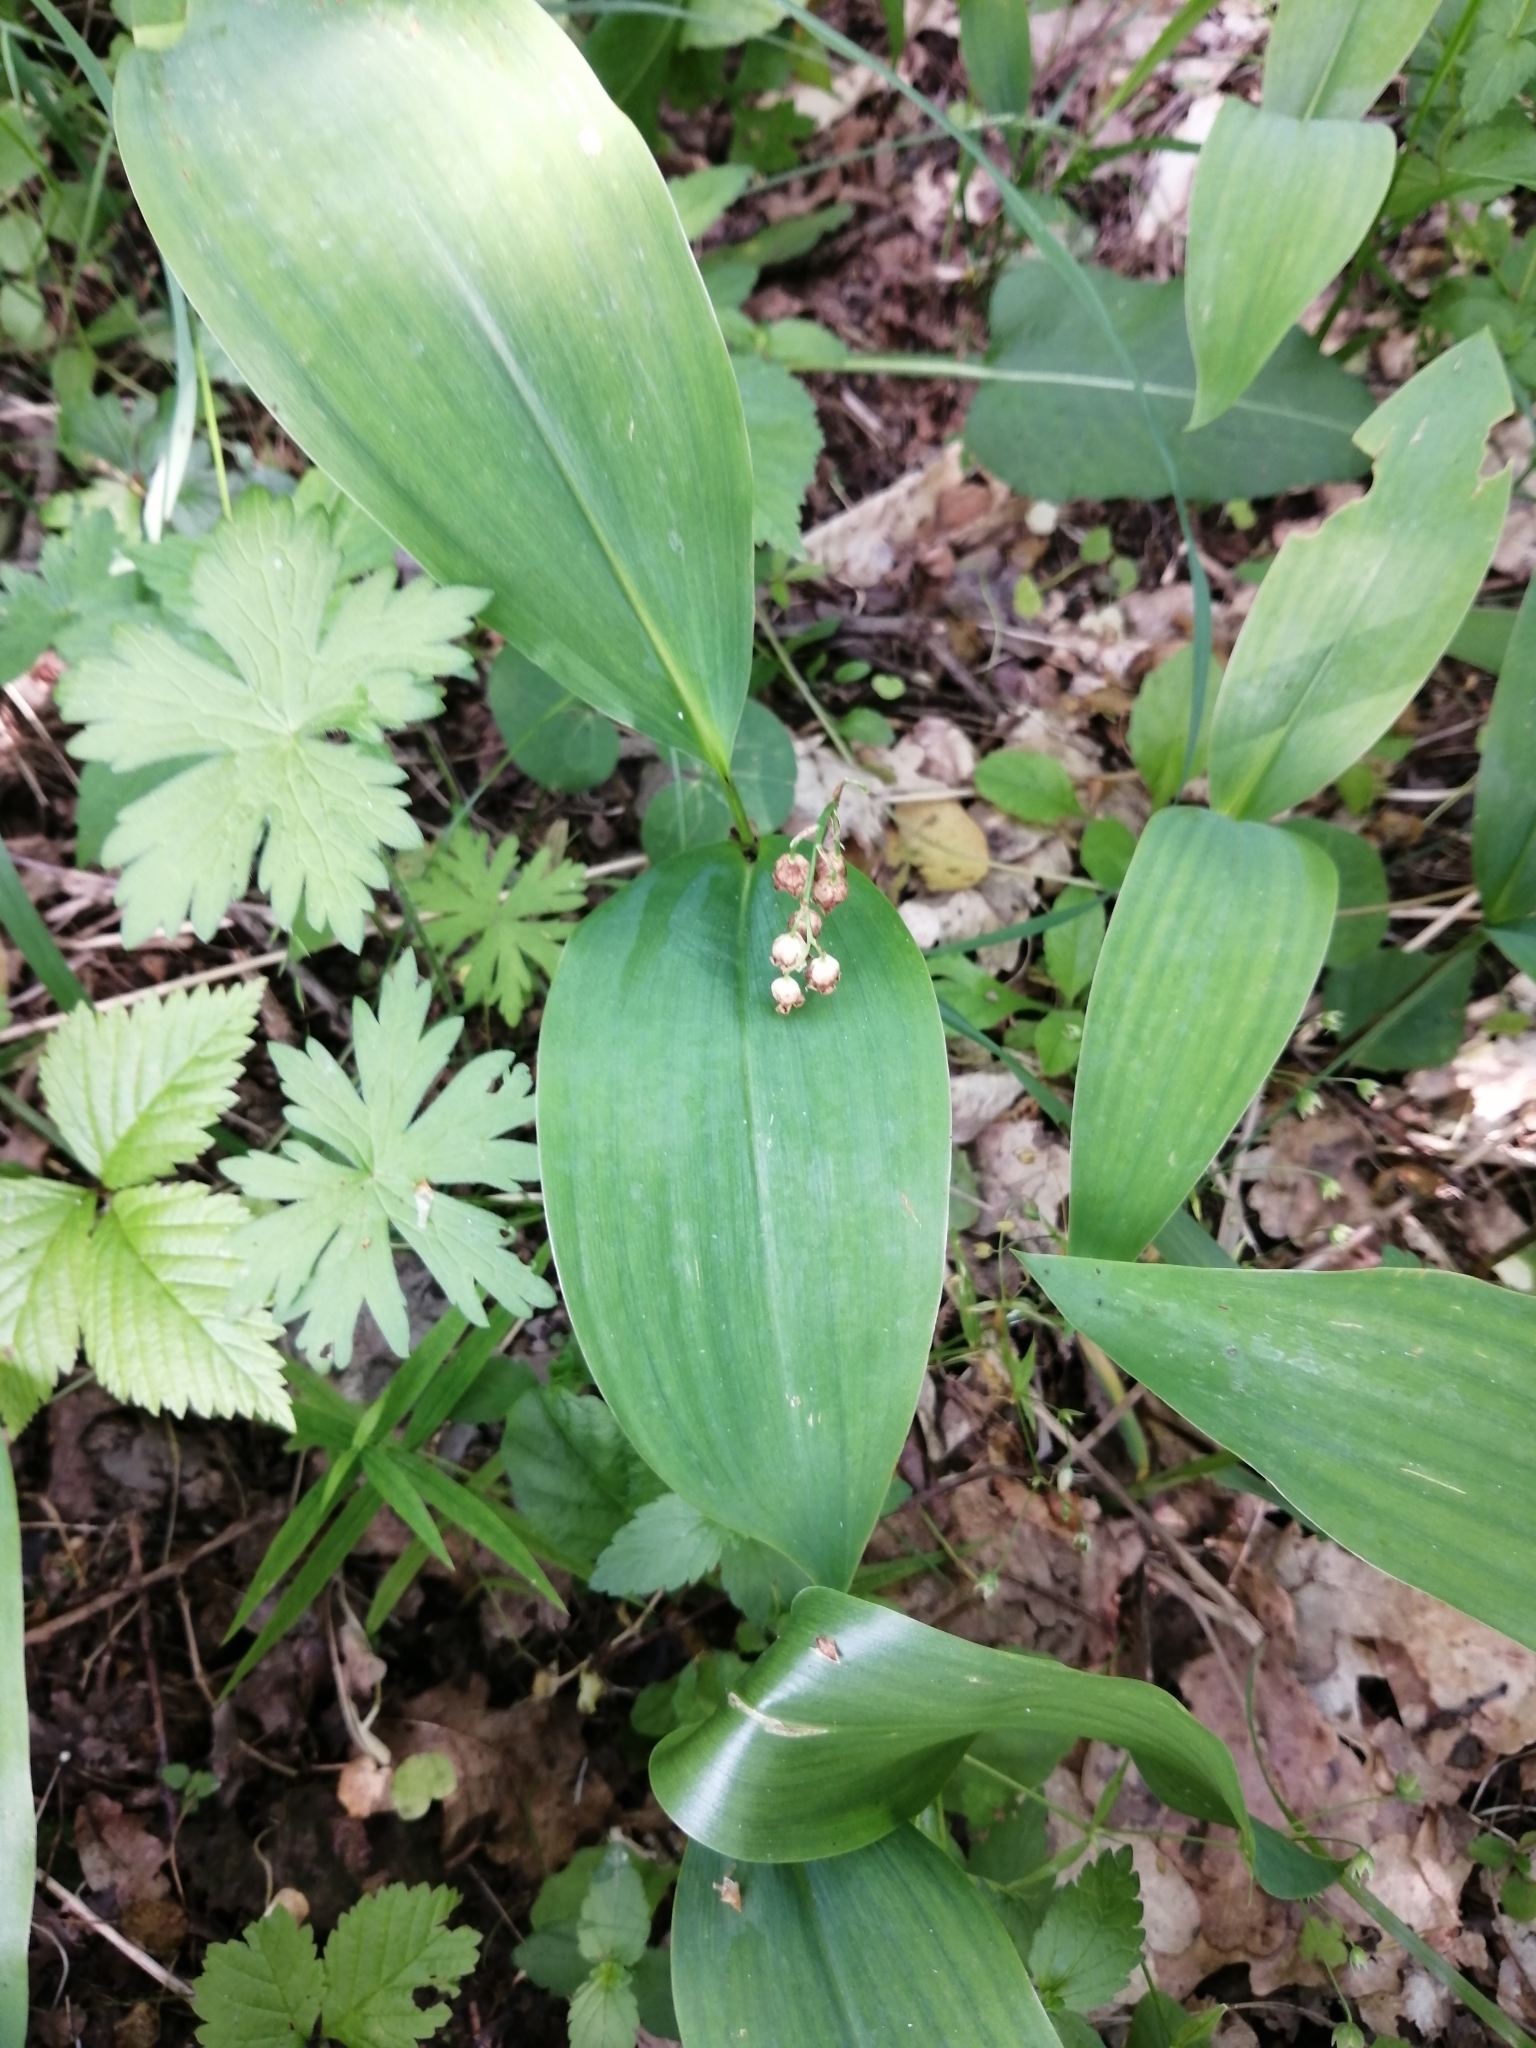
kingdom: Plantae
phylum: Tracheophyta
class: Liliopsida
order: Asparagales
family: Asparagaceae
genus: Convallaria
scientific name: Convallaria majalis
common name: Lily-of-the-valley
